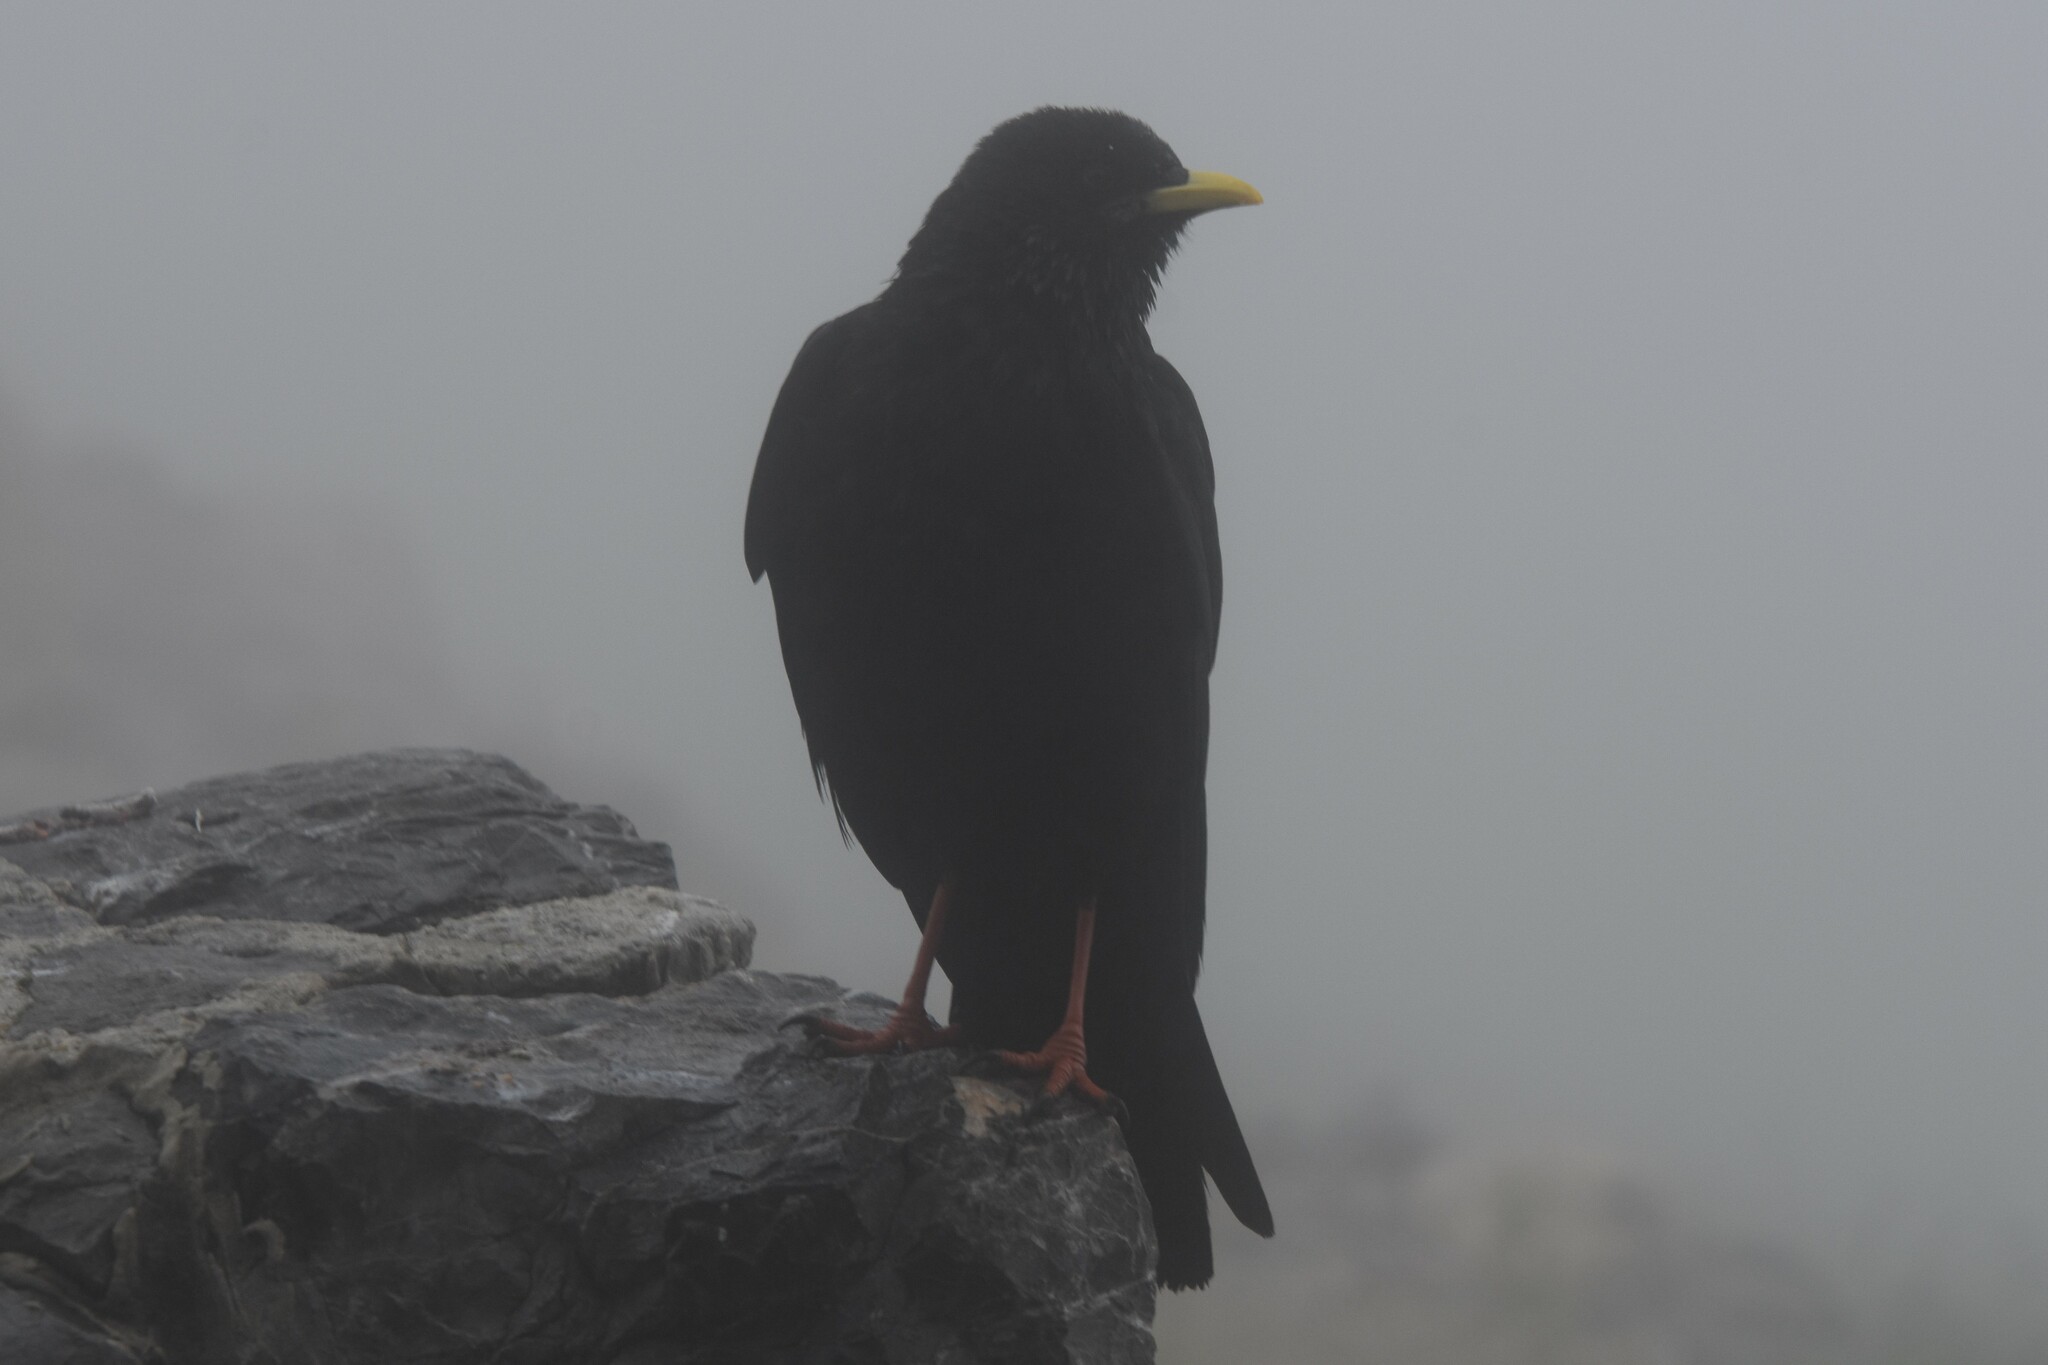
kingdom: Animalia
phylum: Chordata
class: Aves
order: Passeriformes
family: Corvidae
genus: Pyrrhocorax
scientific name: Pyrrhocorax graculus
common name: Alpine chough
